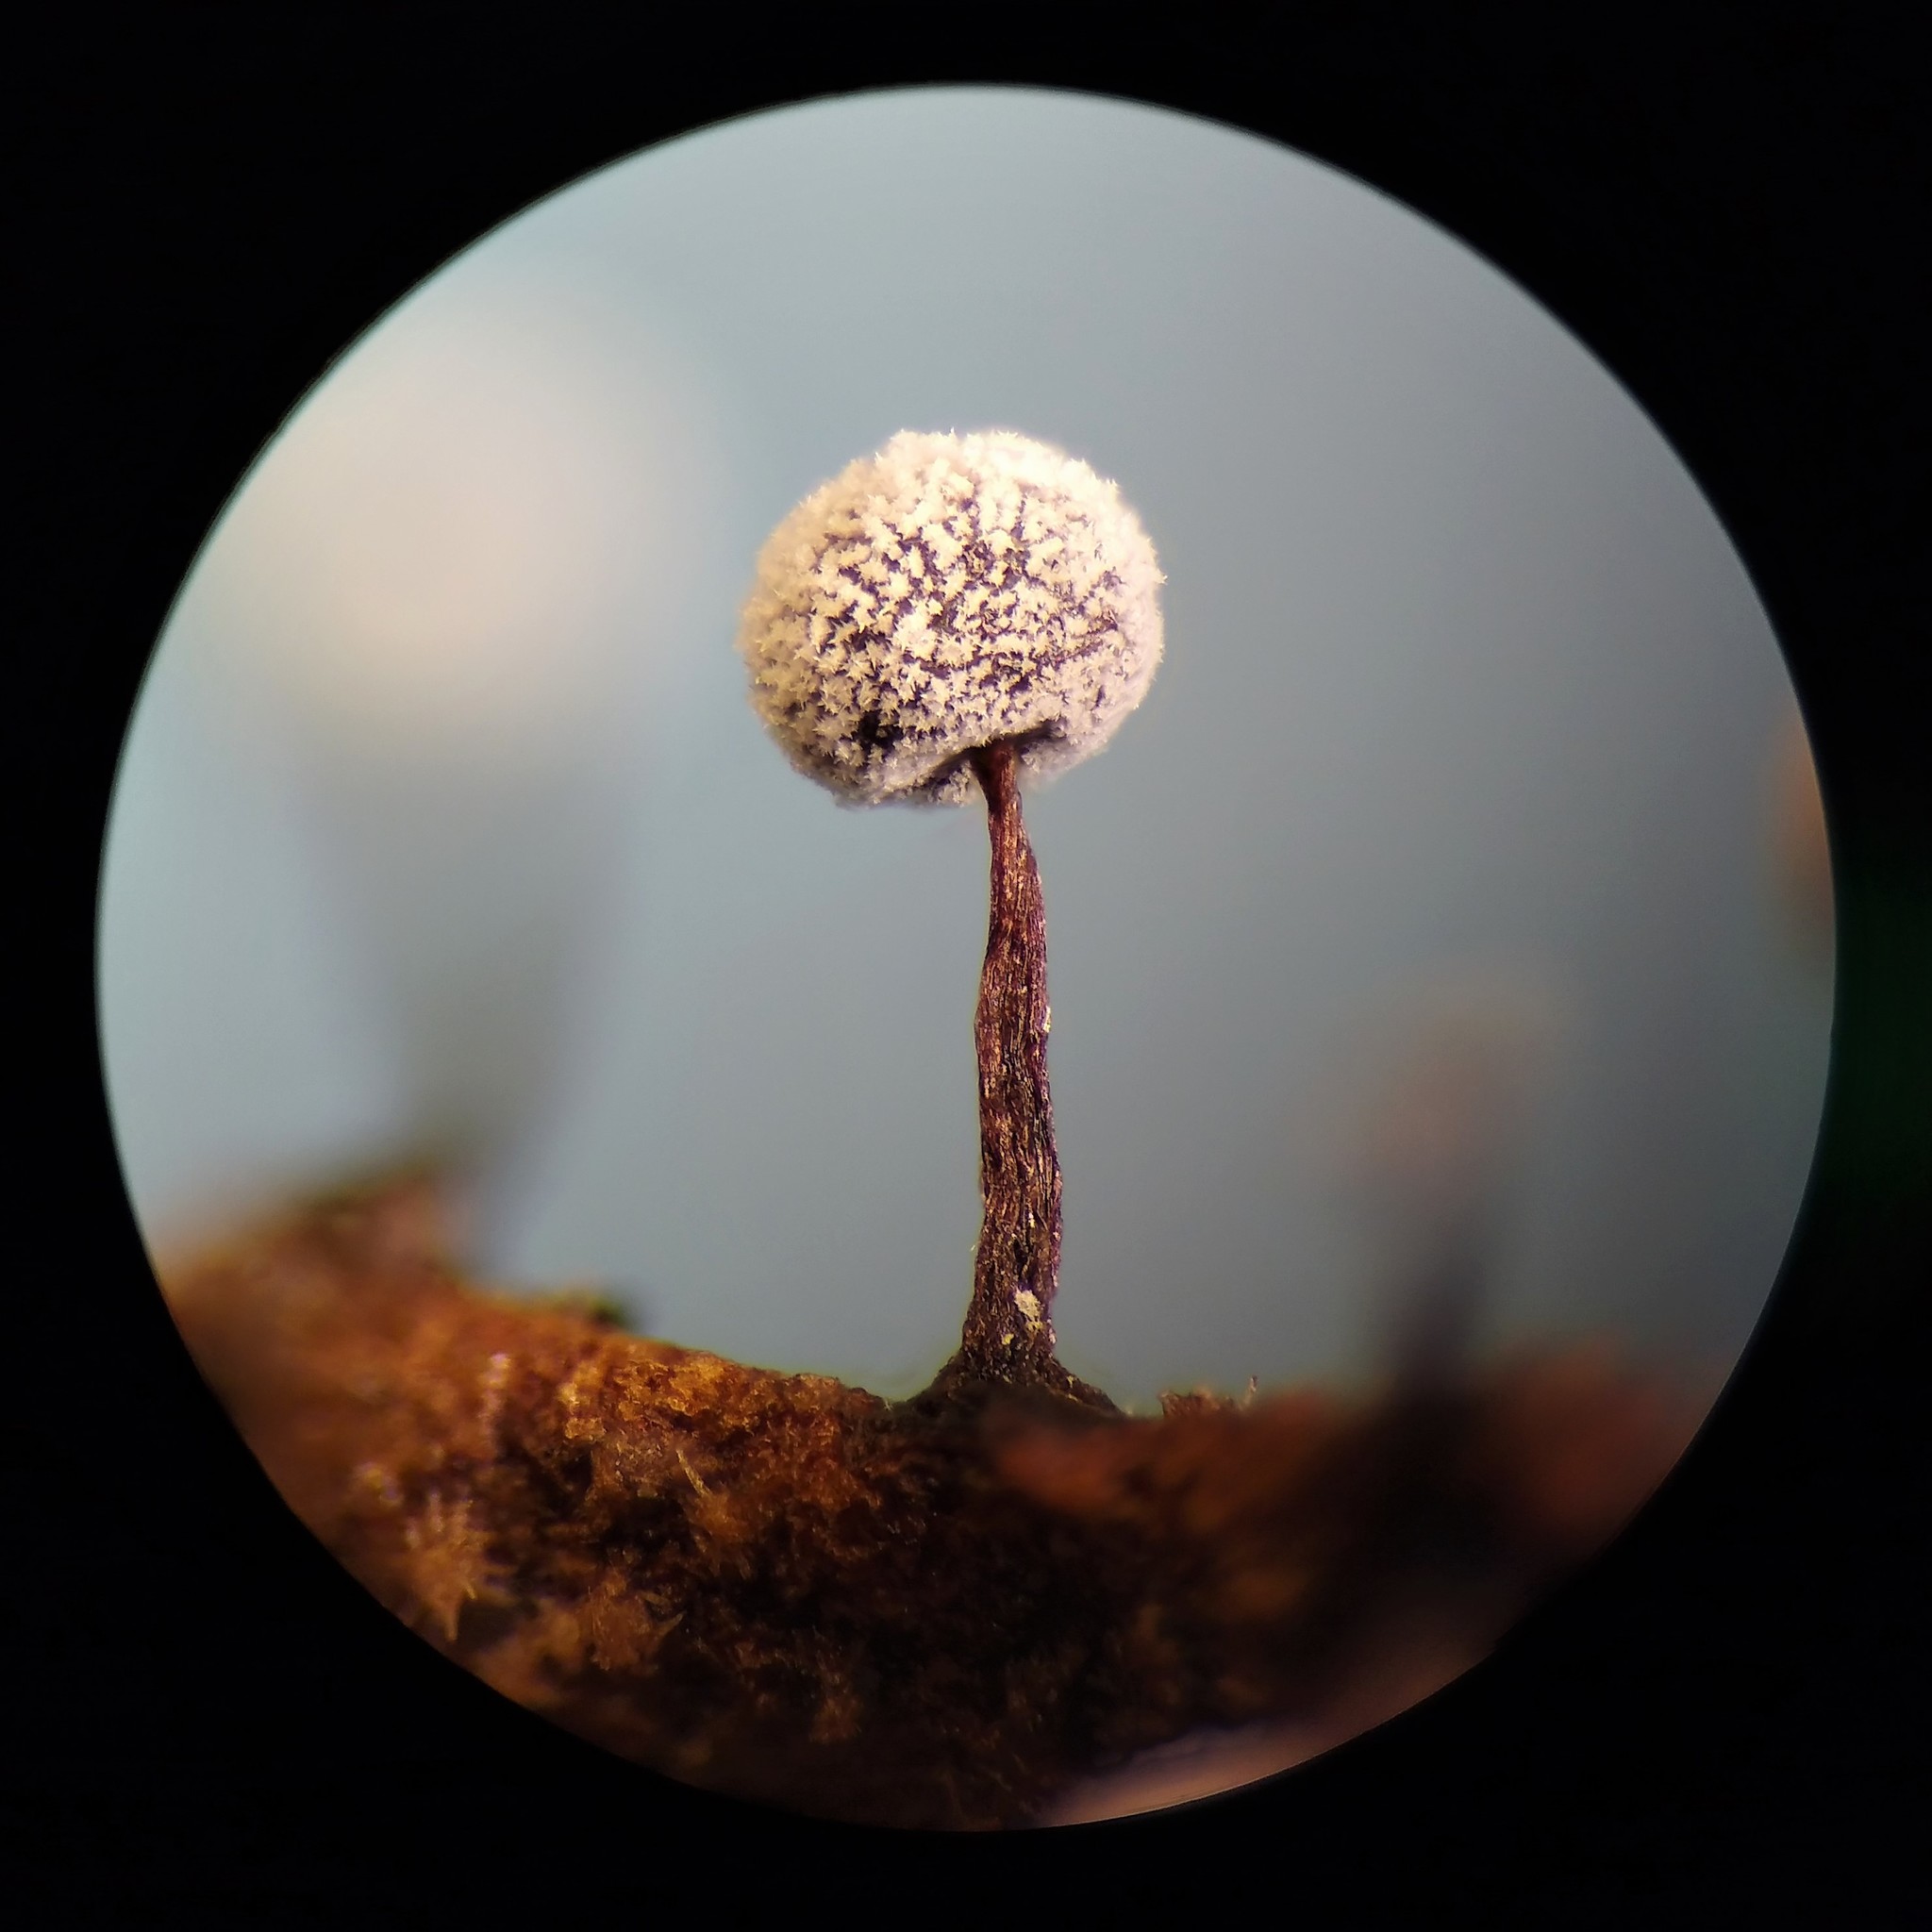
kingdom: Protozoa
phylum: Mycetozoa
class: Myxomycetes
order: Physarales
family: Didymiaceae
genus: Didymium
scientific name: Didymium nigripes
